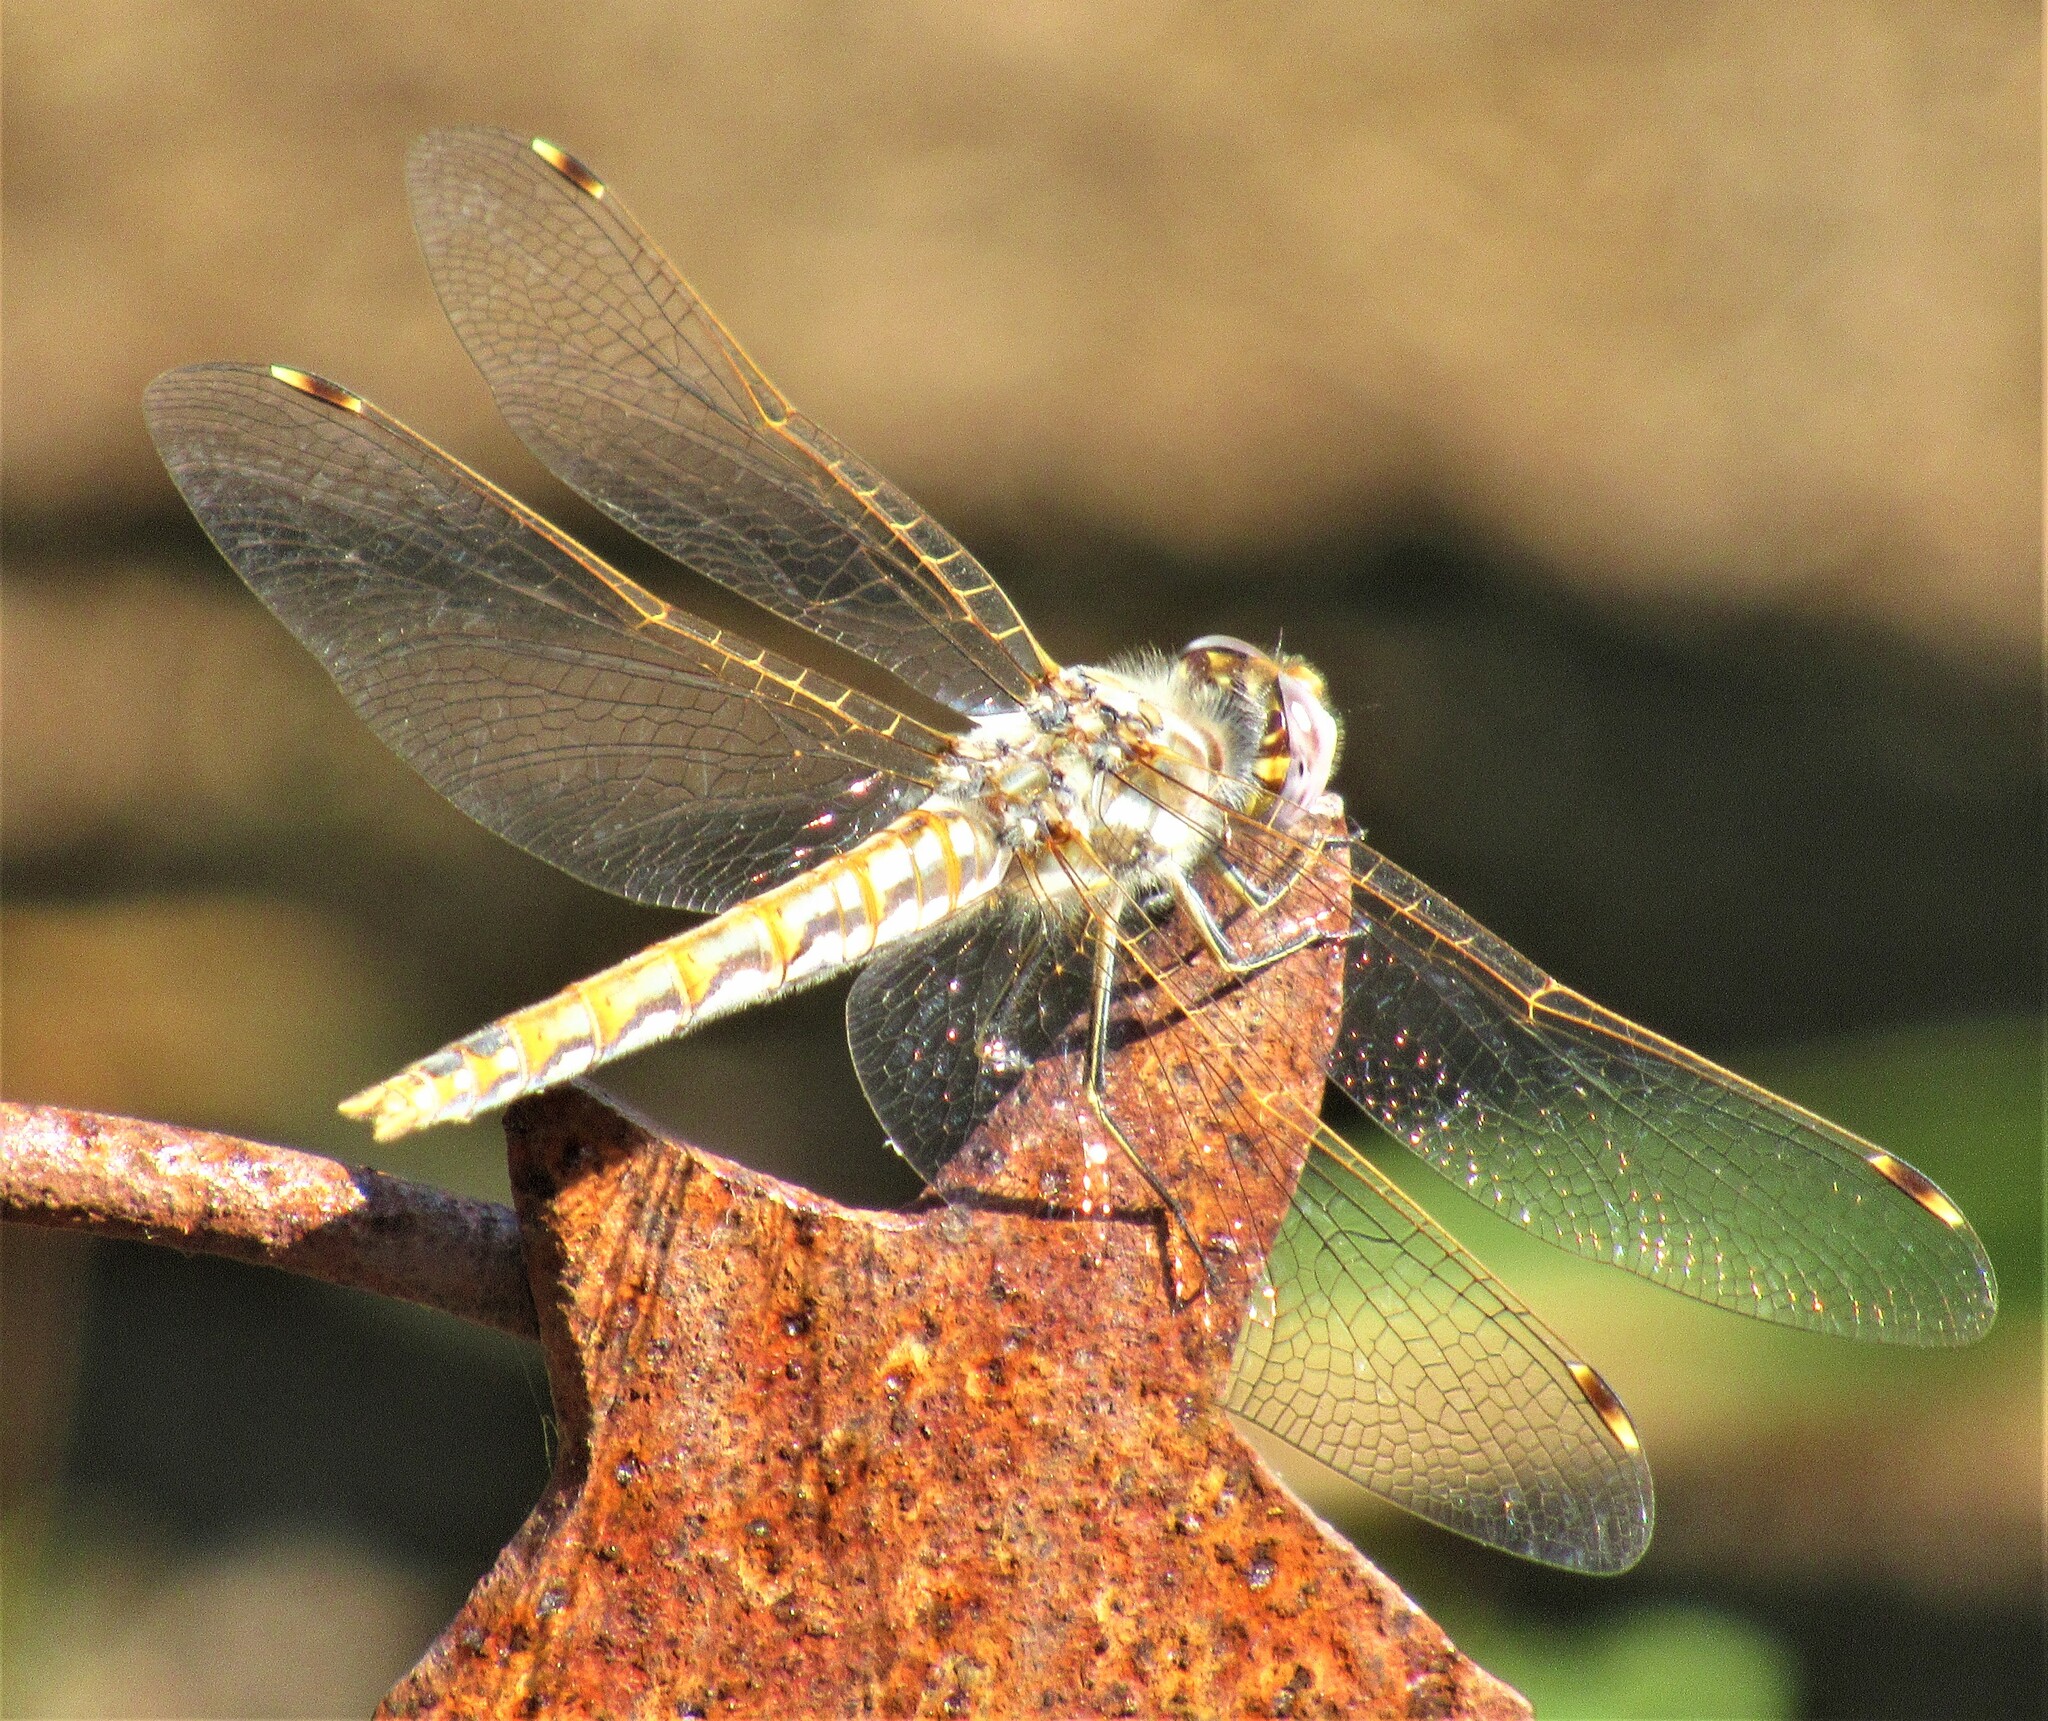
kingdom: Animalia
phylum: Arthropoda
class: Insecta
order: Odonata
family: Libellulidae
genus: Sympetrum
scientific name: Sympetrum corruptum
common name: Variegated meadowhawk
